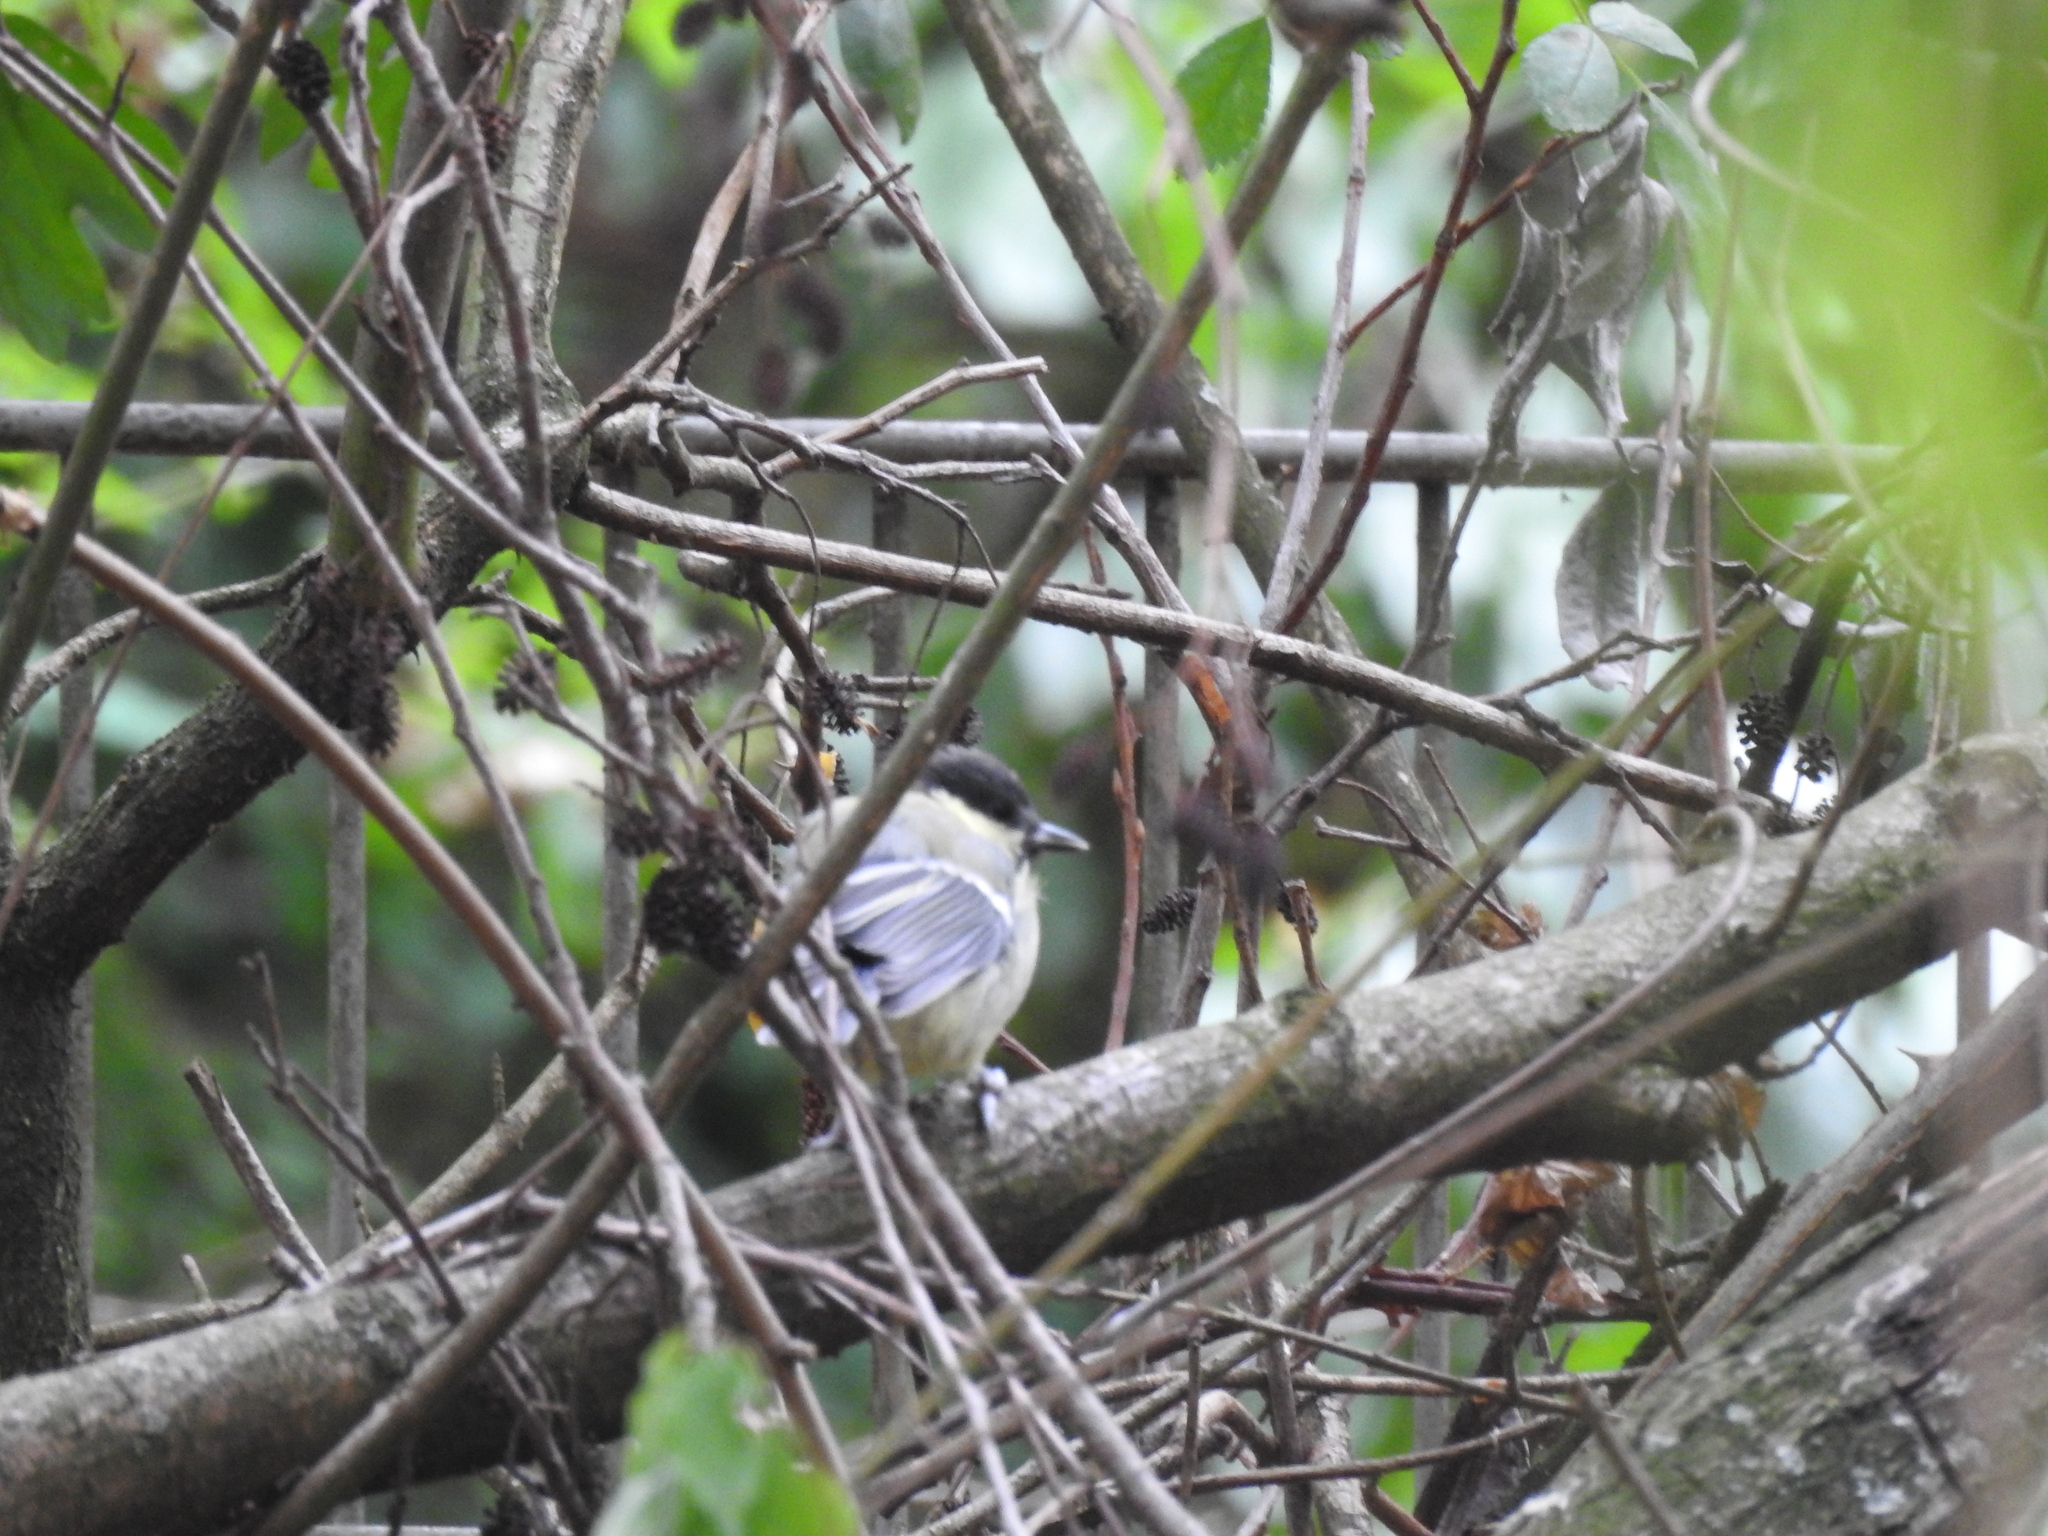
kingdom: Animalia
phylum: Chordata
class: Aves
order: Passeriformes
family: Paridae
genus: Parus
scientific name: Parus major
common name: Great tit
